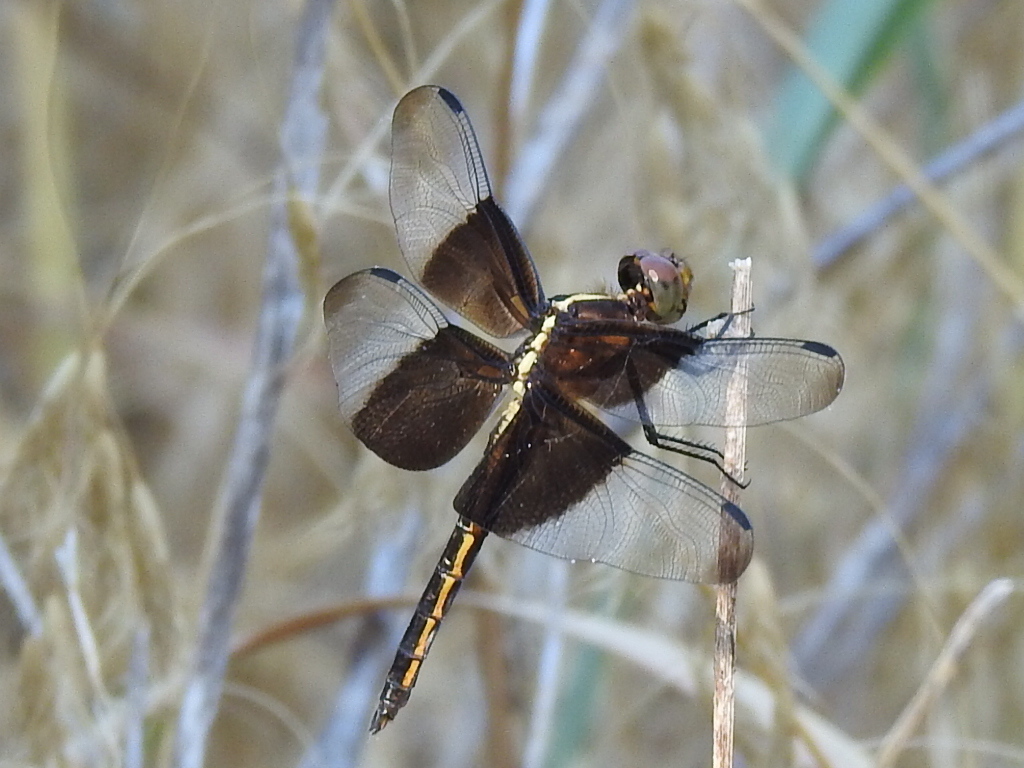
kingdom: Animalia
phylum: Arthropoda
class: Insecta
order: Odonata
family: Libellulidae
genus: Libellula
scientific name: Libellula luctuosa
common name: Widow skimmer
